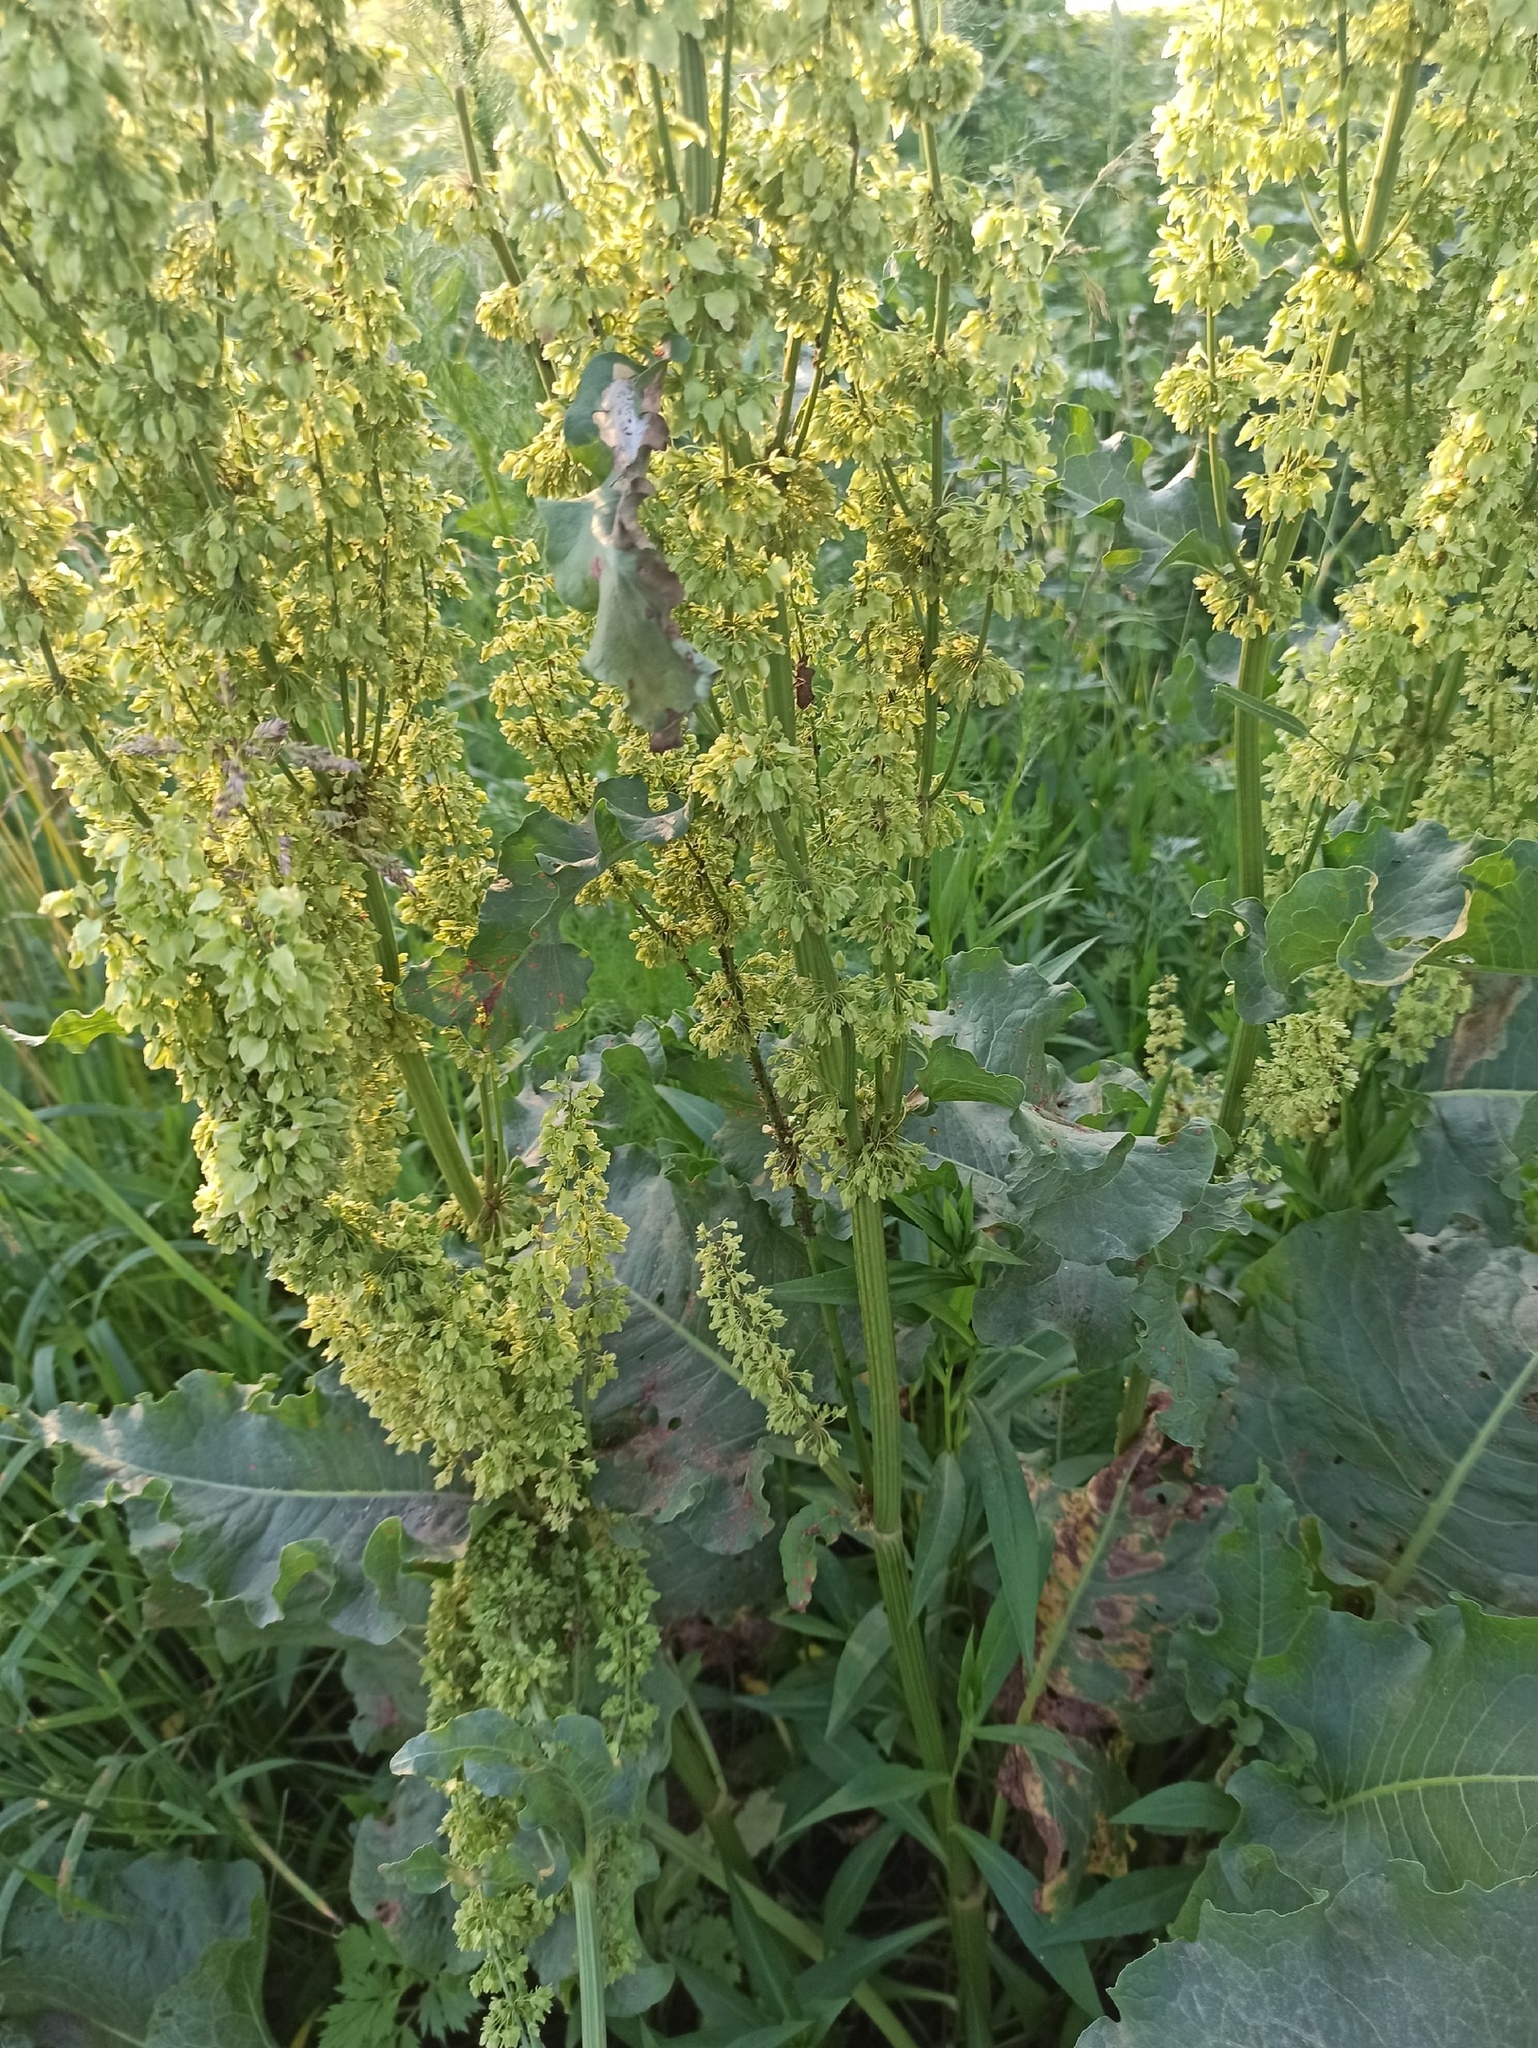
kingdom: Plantae
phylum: Tracheophyta
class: Magnoliopsida
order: Caryophyllales
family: Polygonaceae
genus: Rumex
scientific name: Rumex confertus
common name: Russian dock
